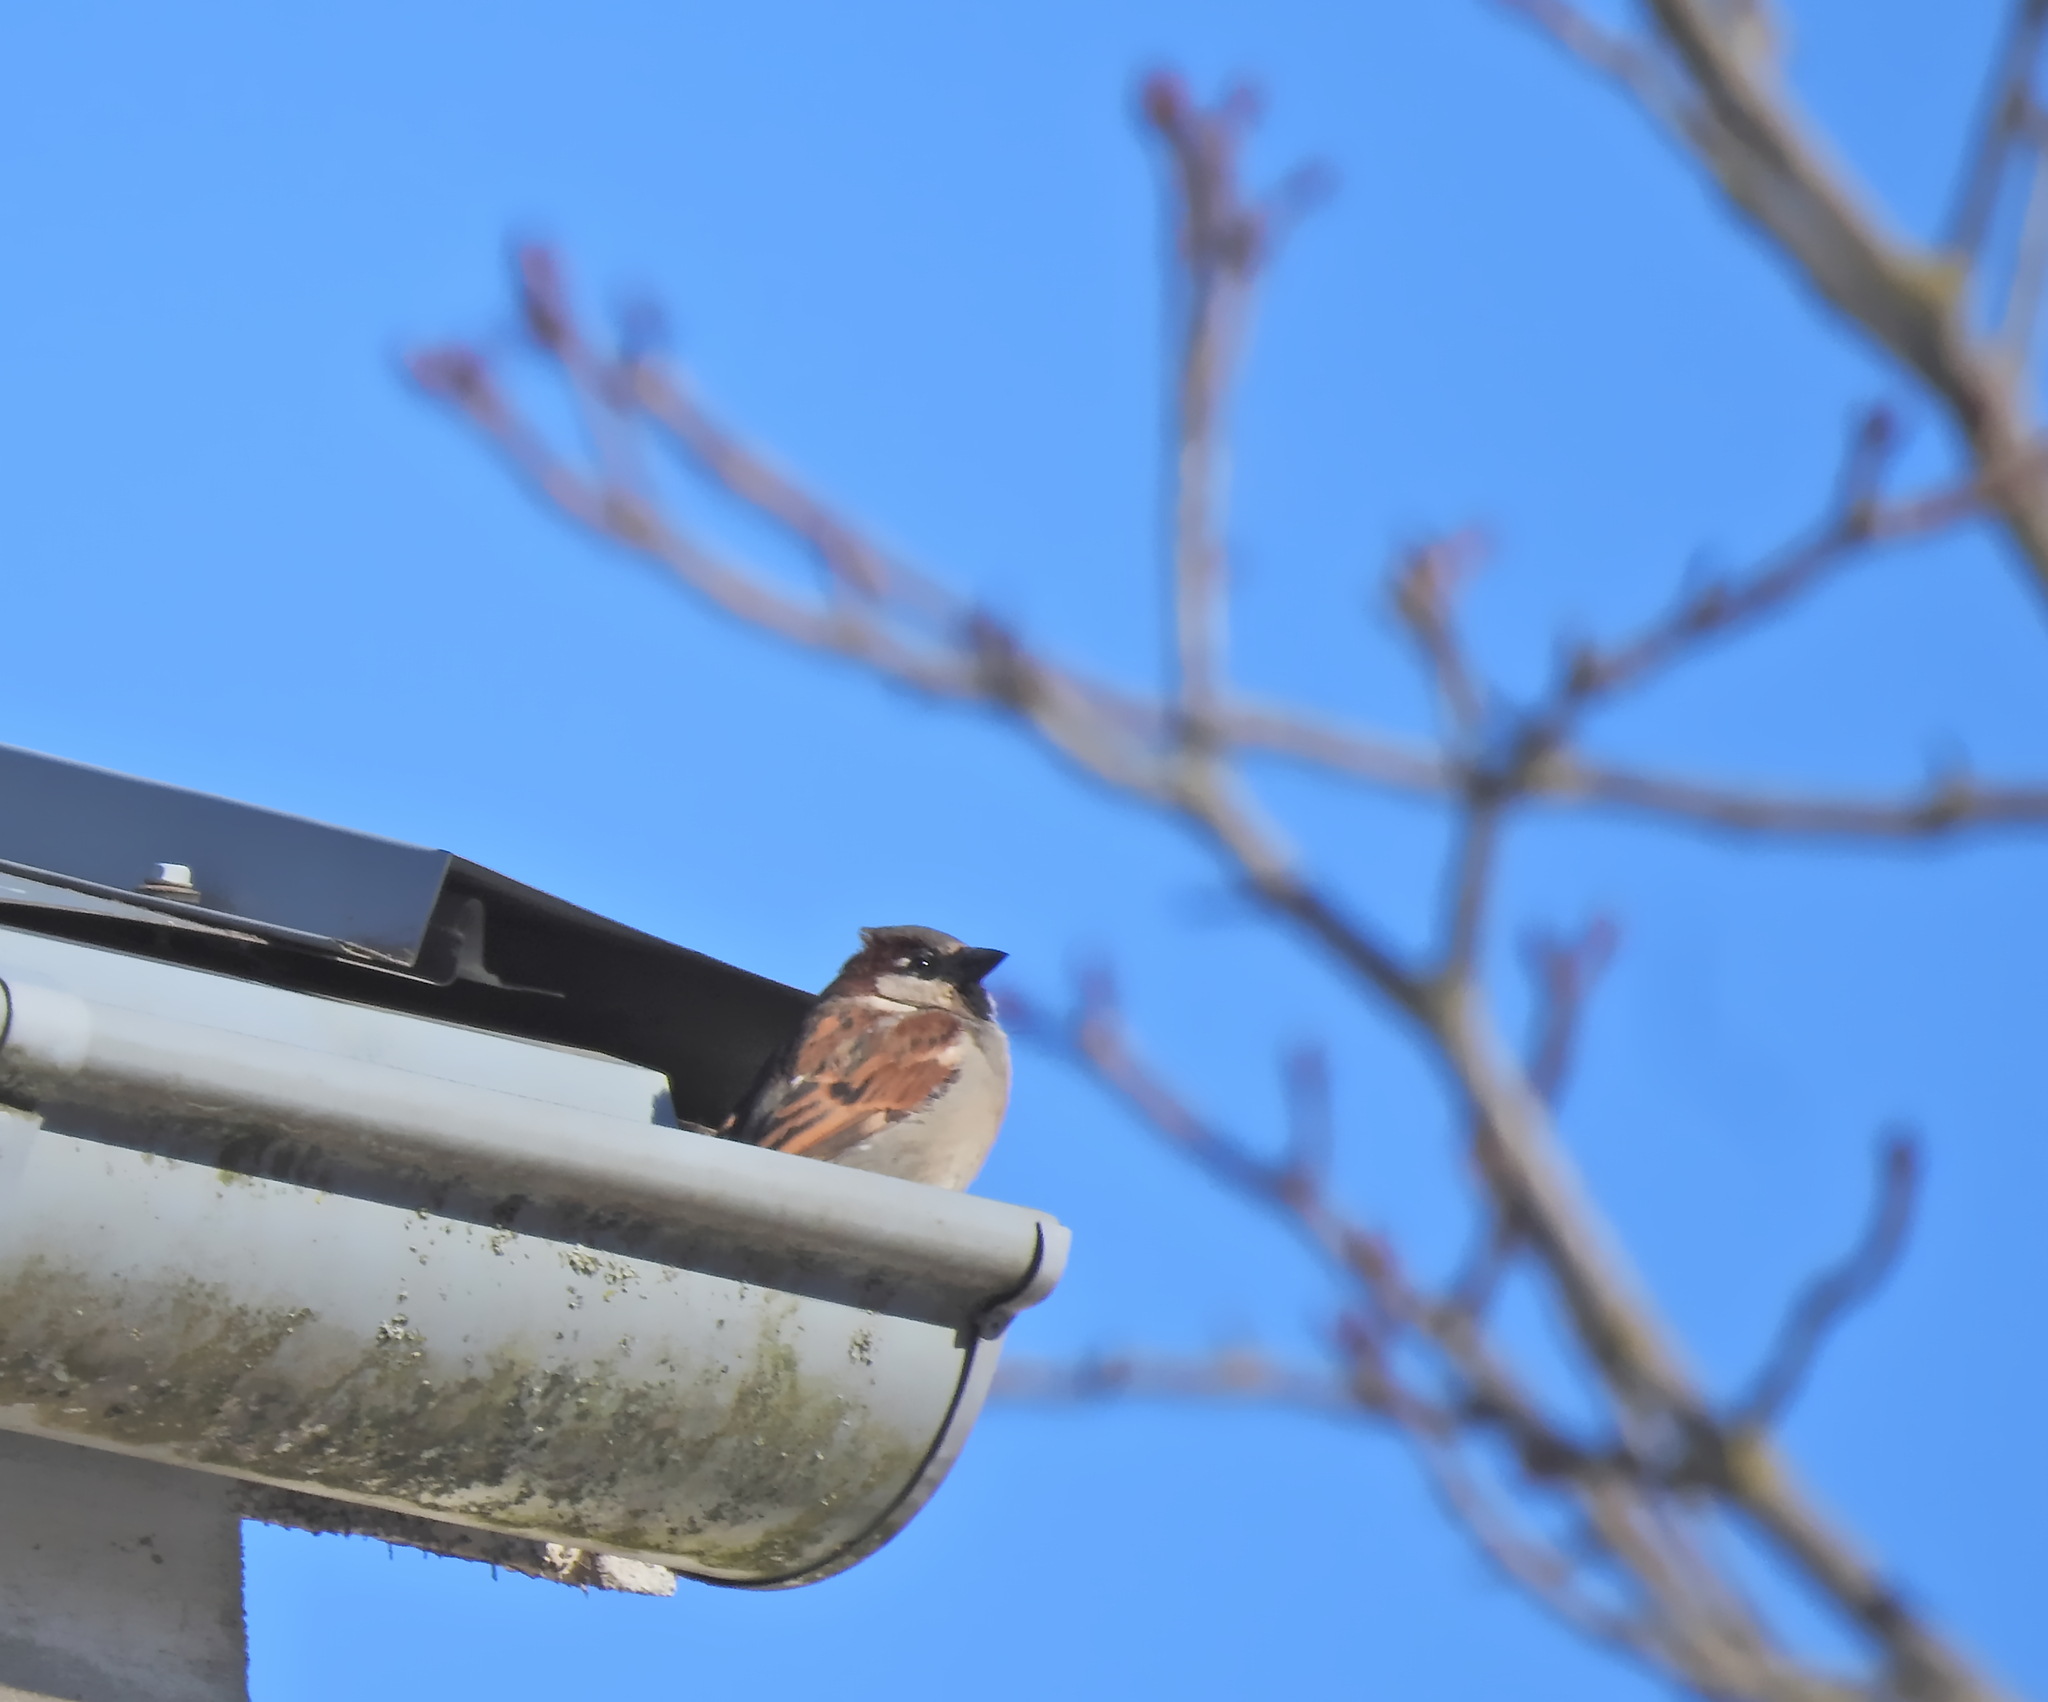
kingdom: Animalia
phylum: Chordata
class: Aves
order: Passeriformes
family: Passeridae
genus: Passer
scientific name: Passer domesticus
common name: House sparrow
